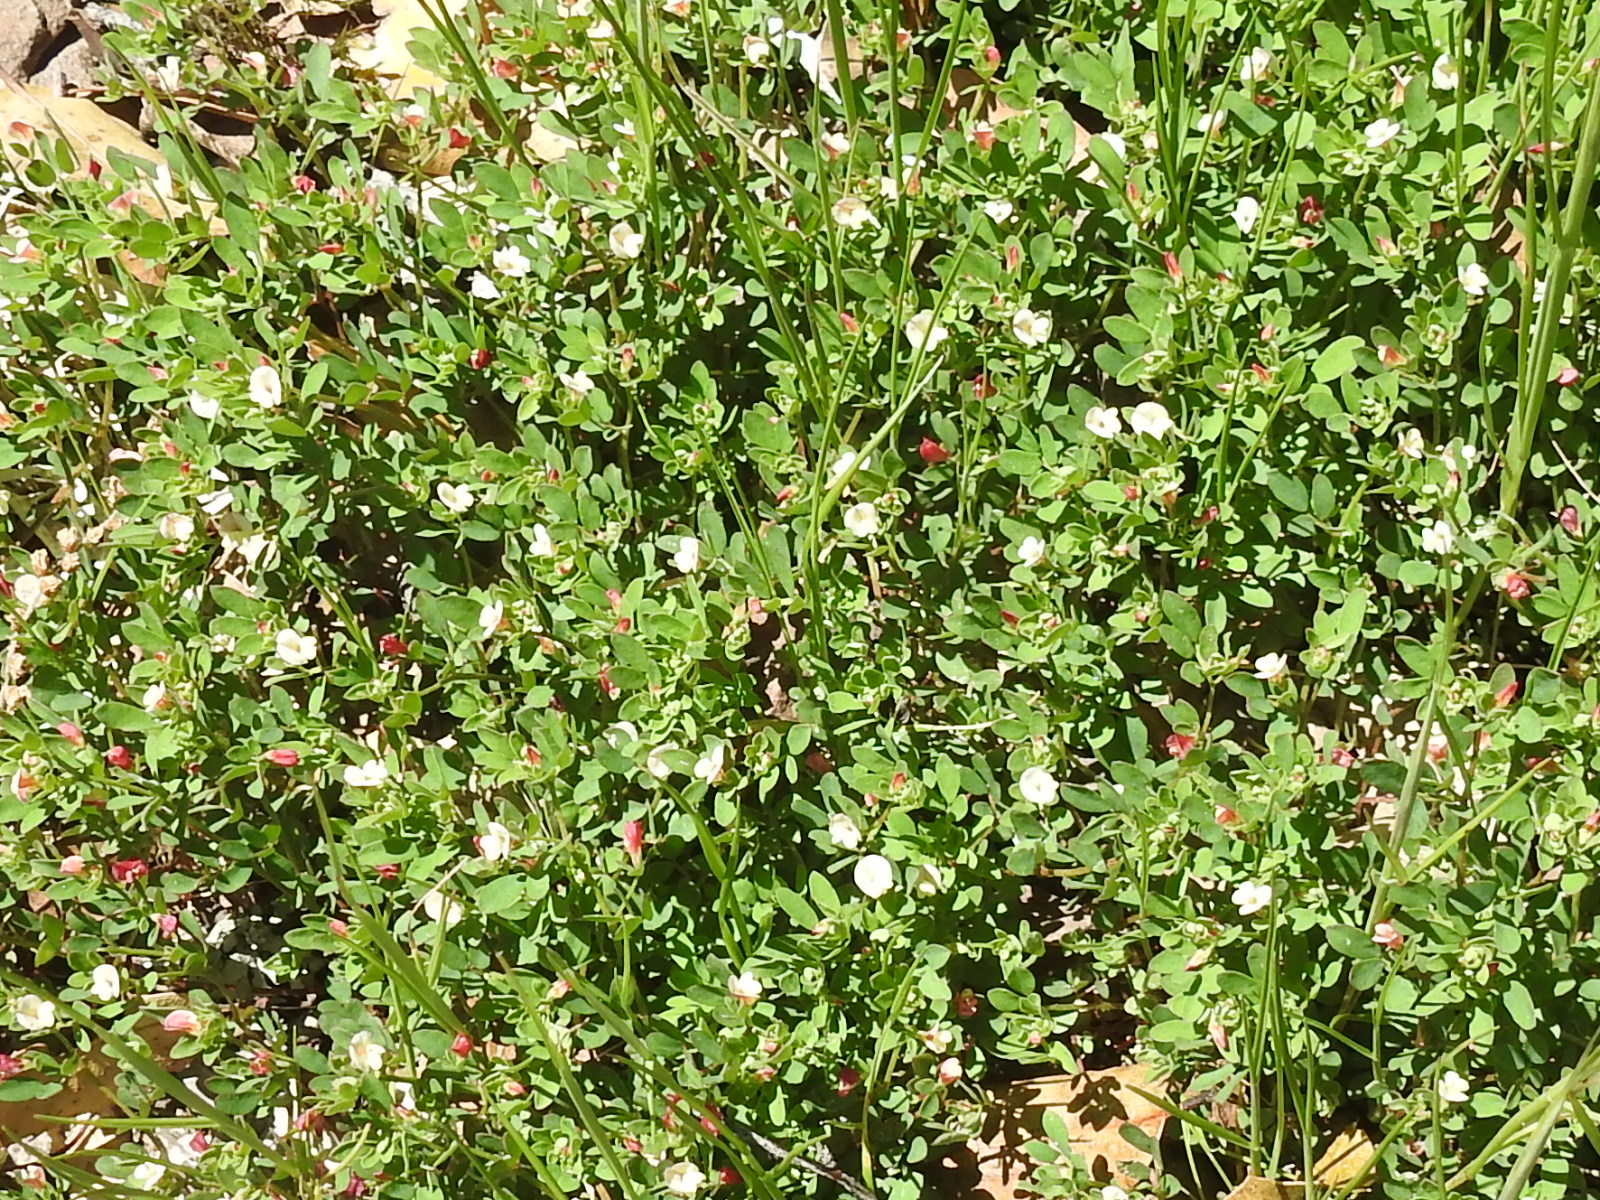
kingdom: Plantae
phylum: Tracheophyta
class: Magnoliopsida
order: Cornales
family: Hydrangeaceae
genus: Whipplea
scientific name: Whipplea modesta
